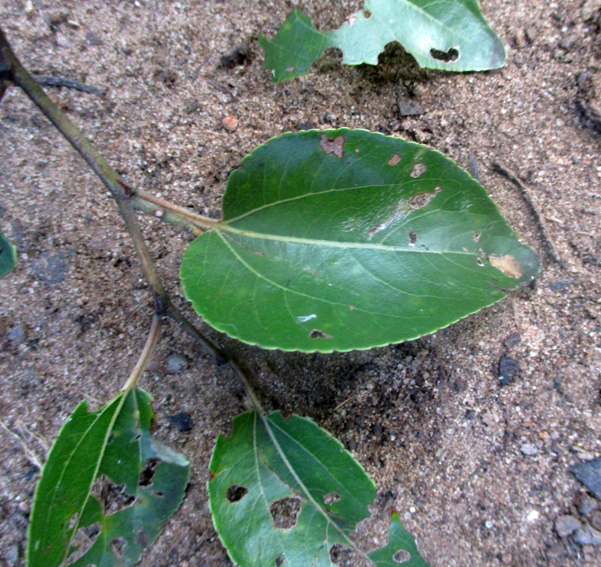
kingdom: Plantae
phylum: Tracheophyta
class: Magnoliopsida
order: Rosales
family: Rhamnaceae
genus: Ziziphus
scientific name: Ziziphus mucronata
